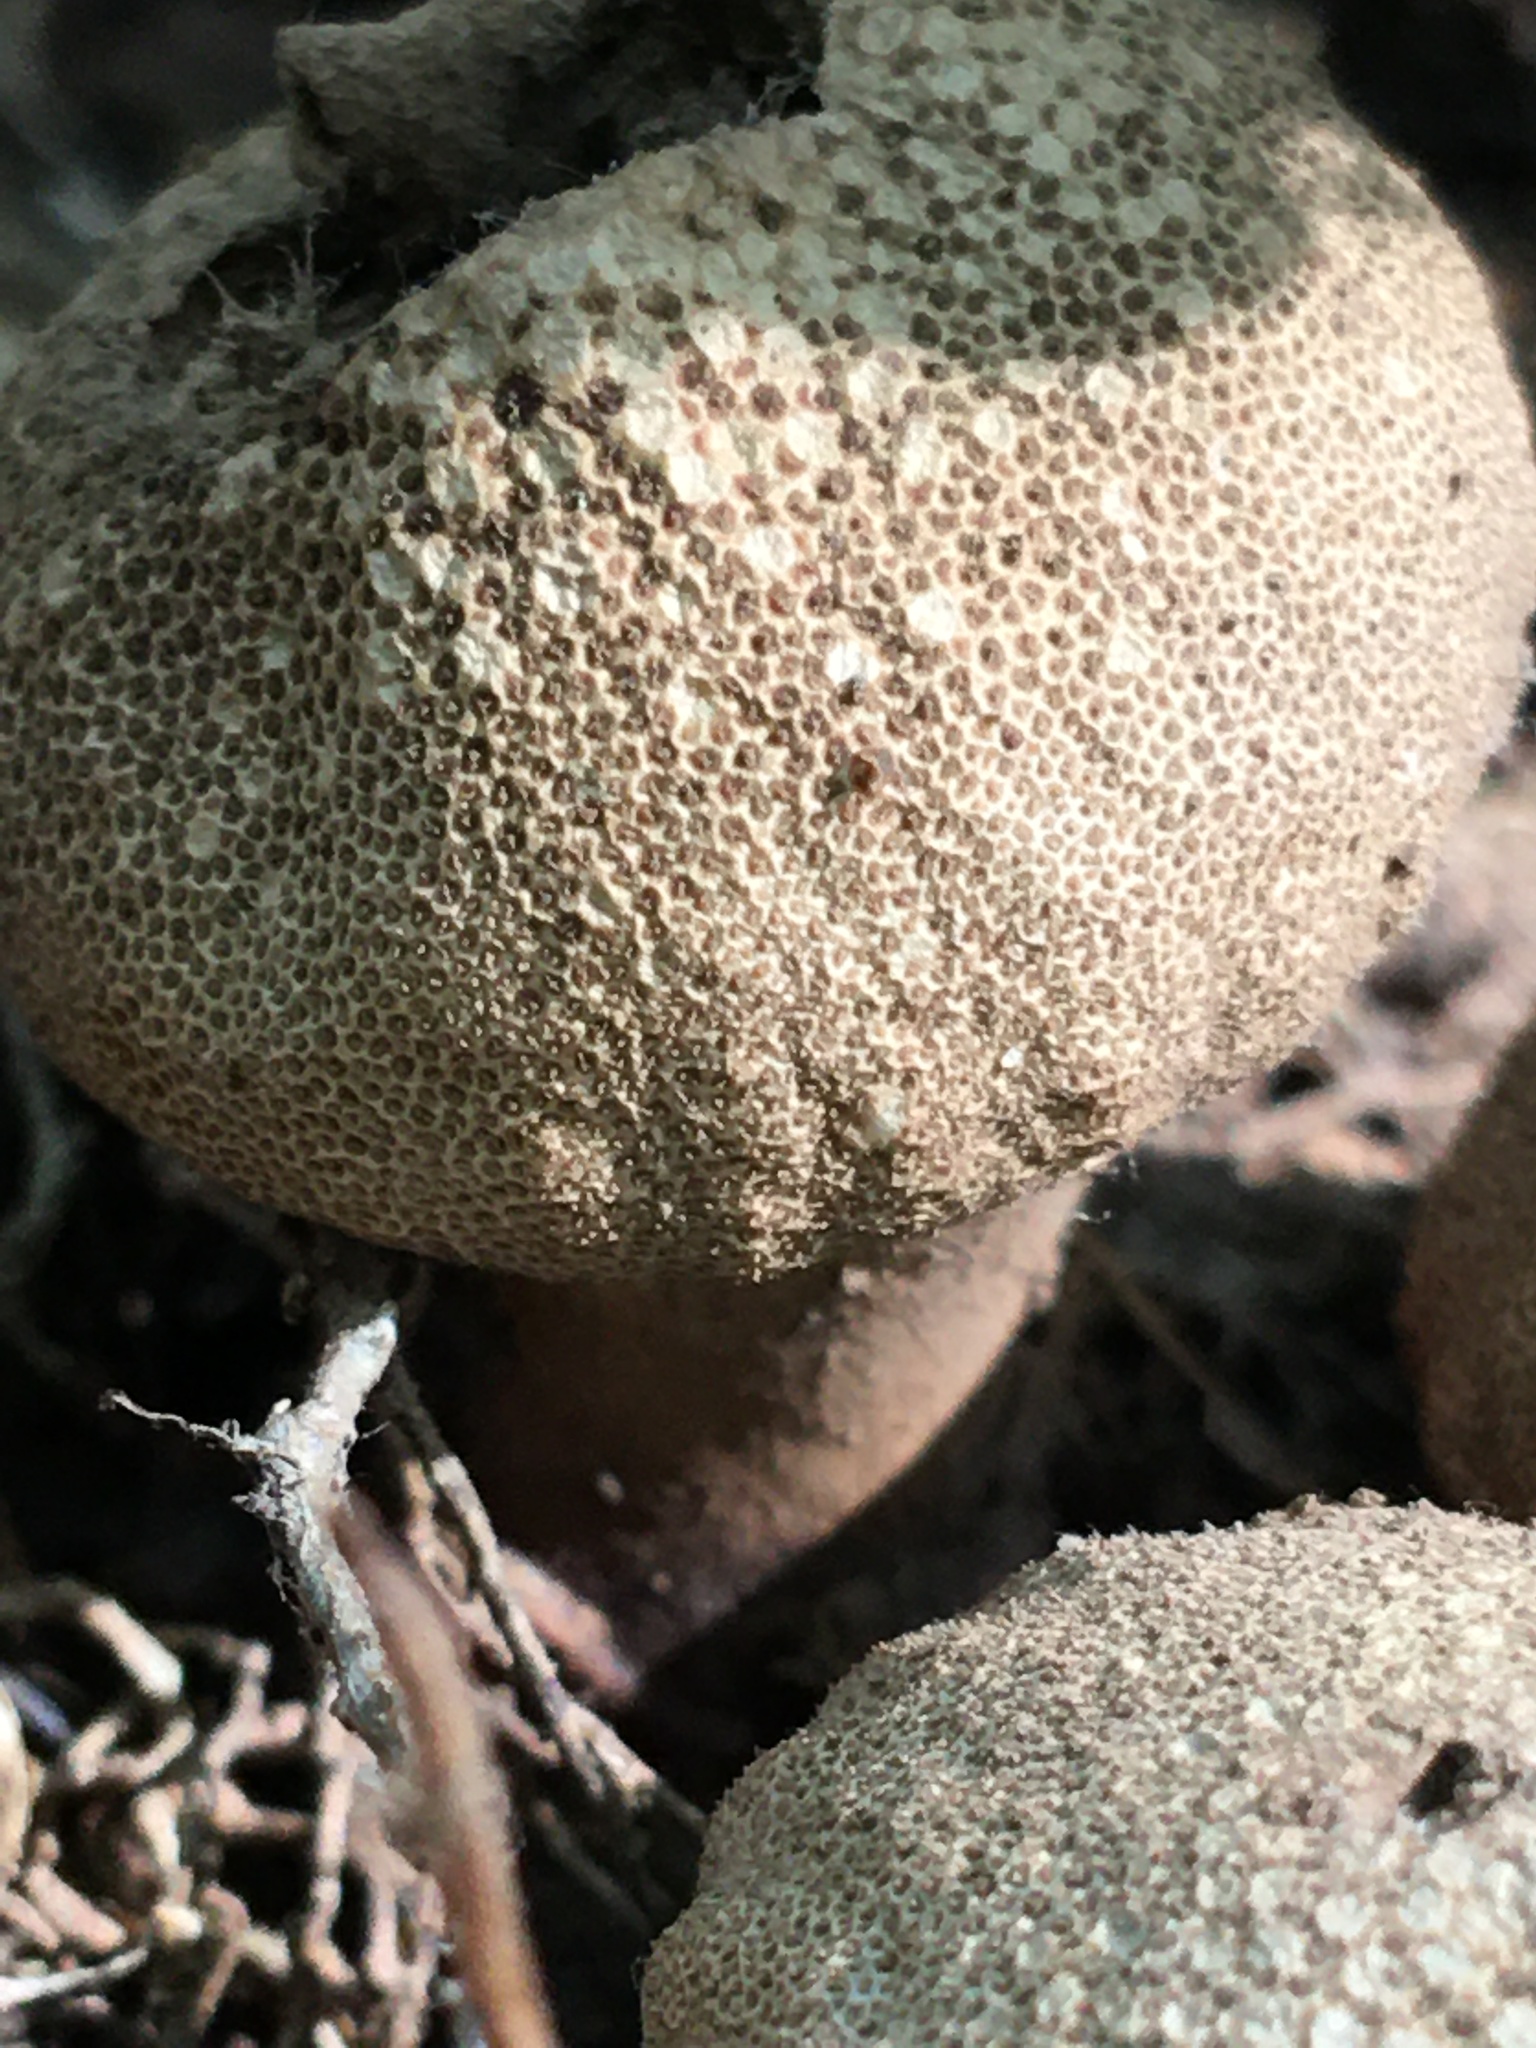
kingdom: Fungi
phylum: Basidiomycota
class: Agaricomycetes
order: Agaricales
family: Lycoperdaceae
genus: Apioperdon
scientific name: Apioperdon pyriforme
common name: Pear-shaped puffball
